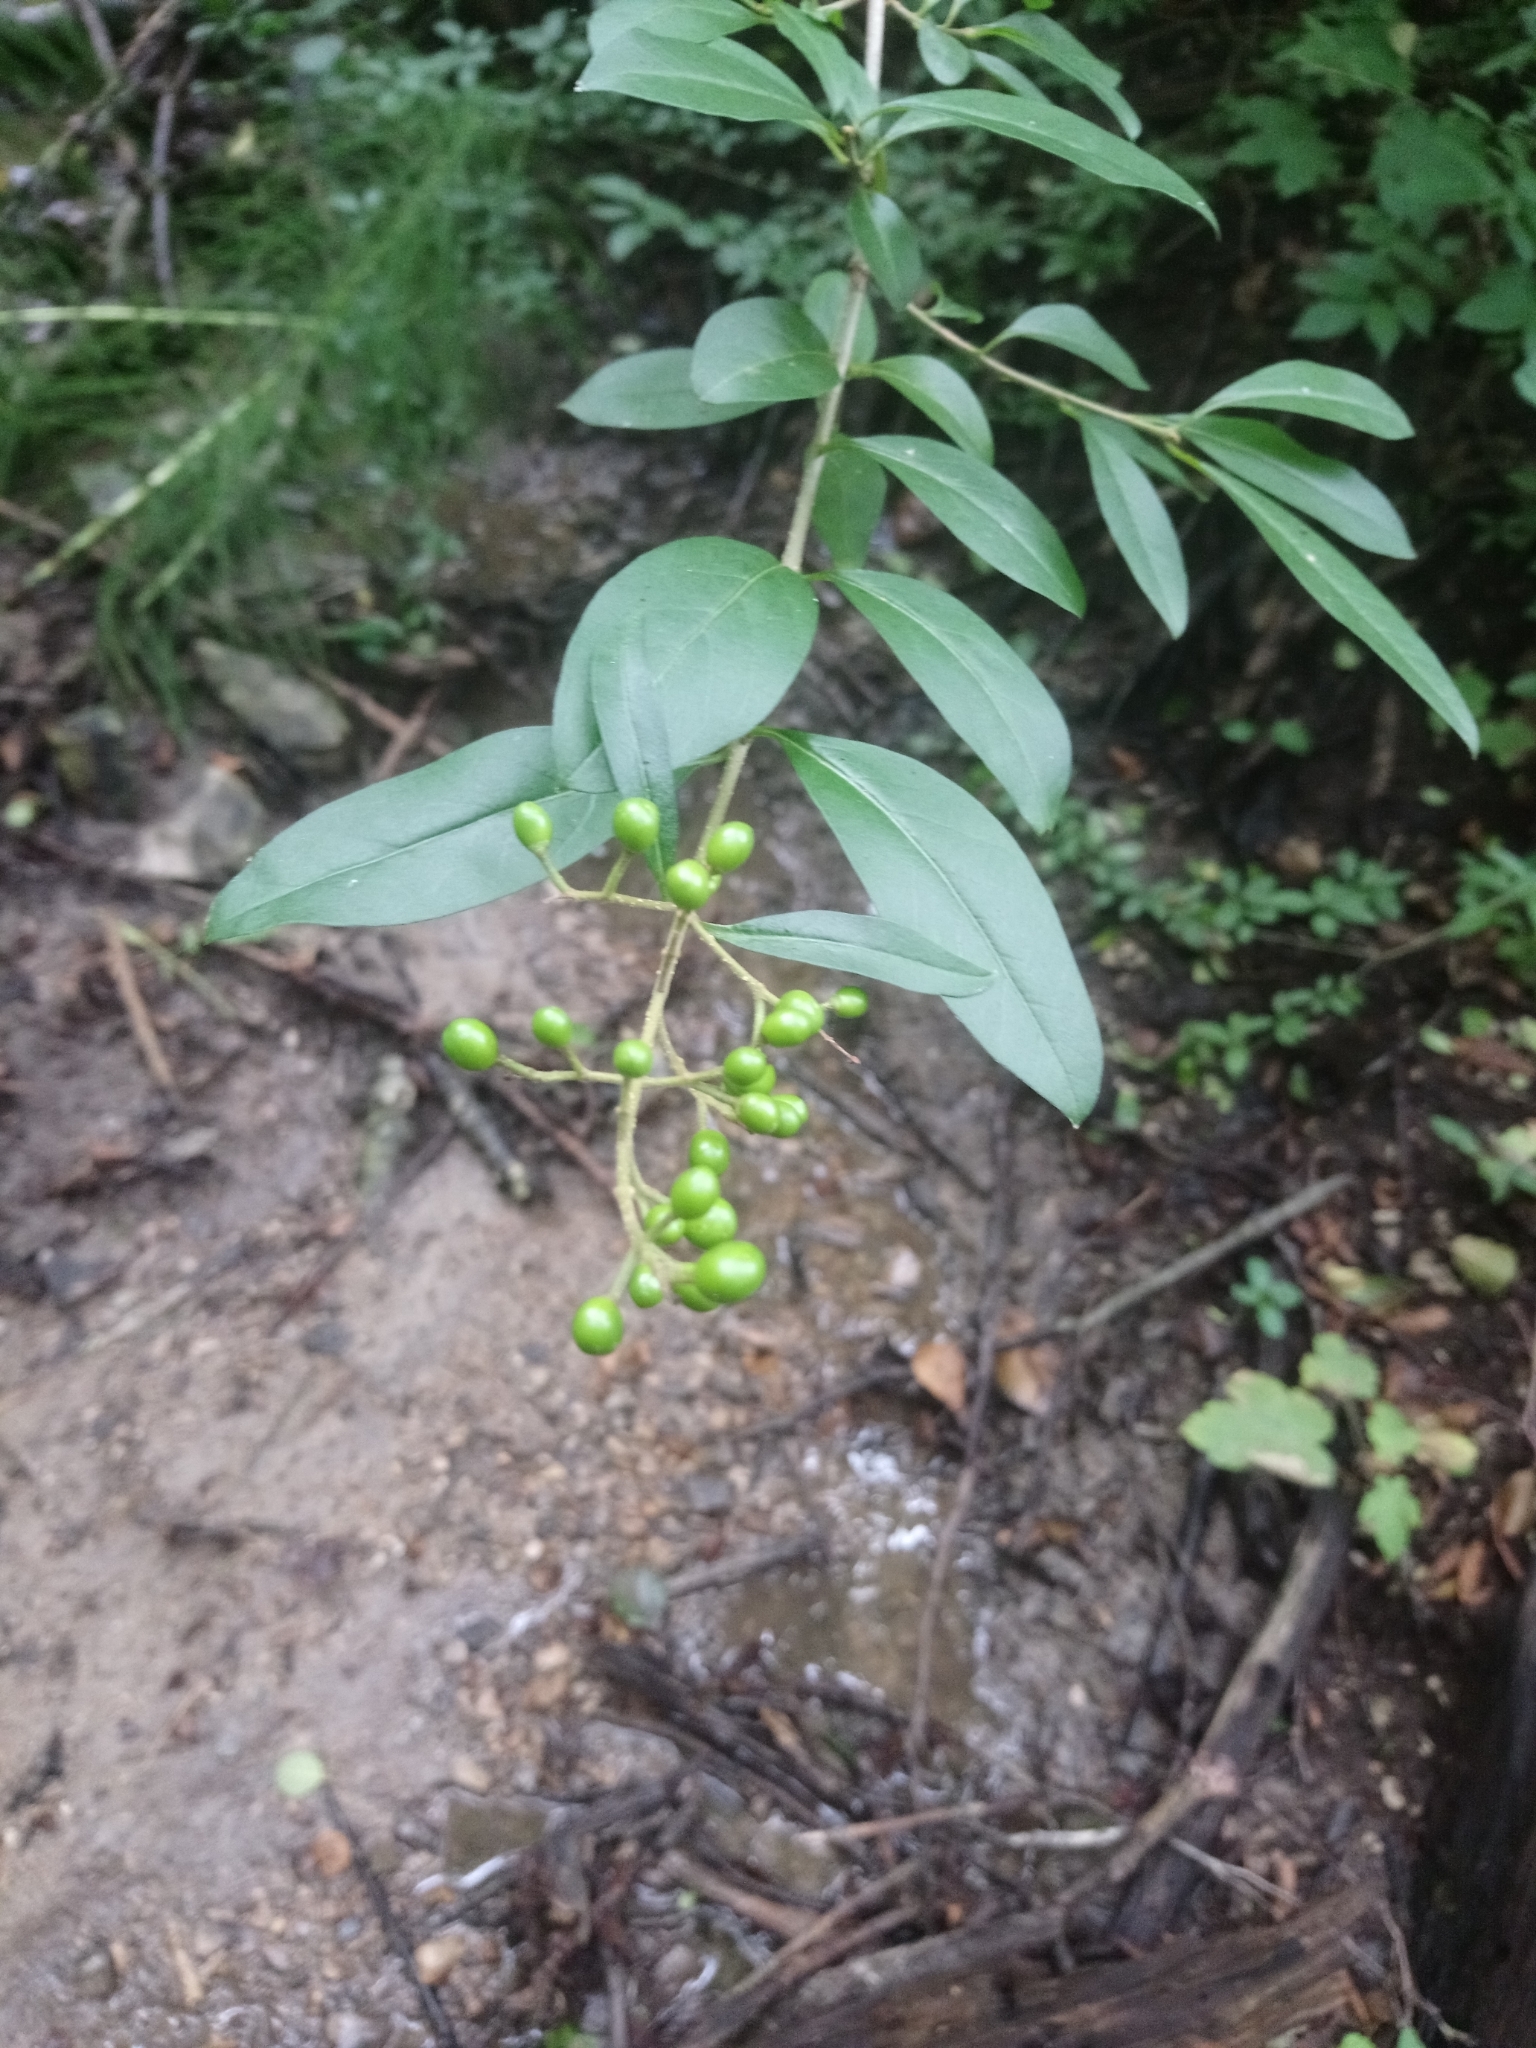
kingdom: Plantae
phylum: Tracheophyta
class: Magnoliopsida
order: Lamiales
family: Oleaceae
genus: Ligustrum
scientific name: Ligustrum vulgare
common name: Wild privet
